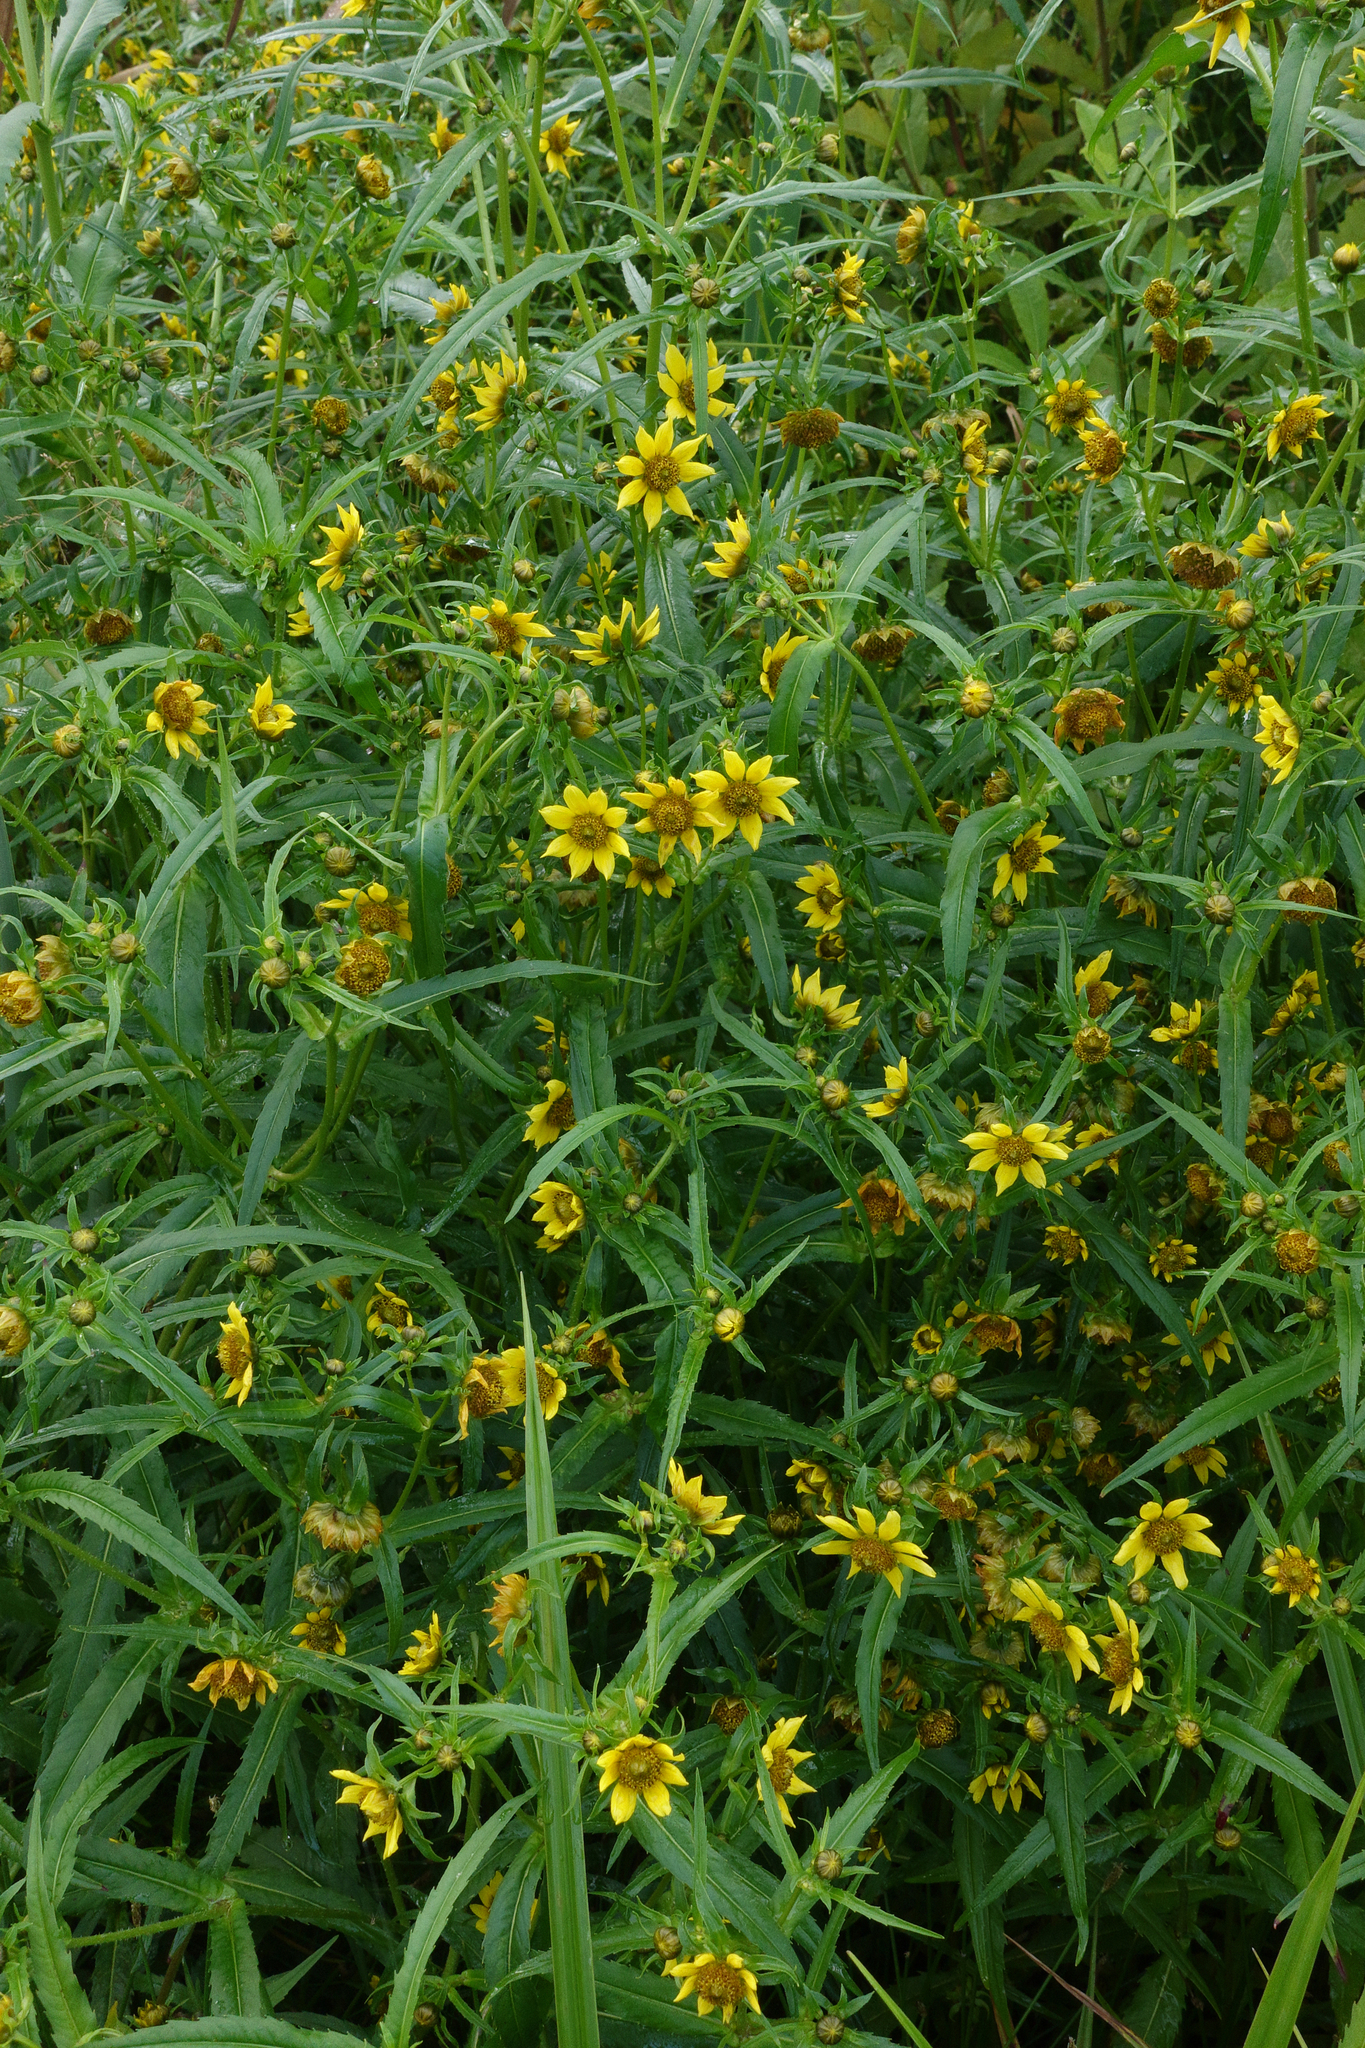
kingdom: Plantae
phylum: Tracheophyta
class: Magnoliopsida
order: Asterales
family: Asteraceae
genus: Bidens
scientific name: Bidens cernua
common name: Nodding bur-marigold
